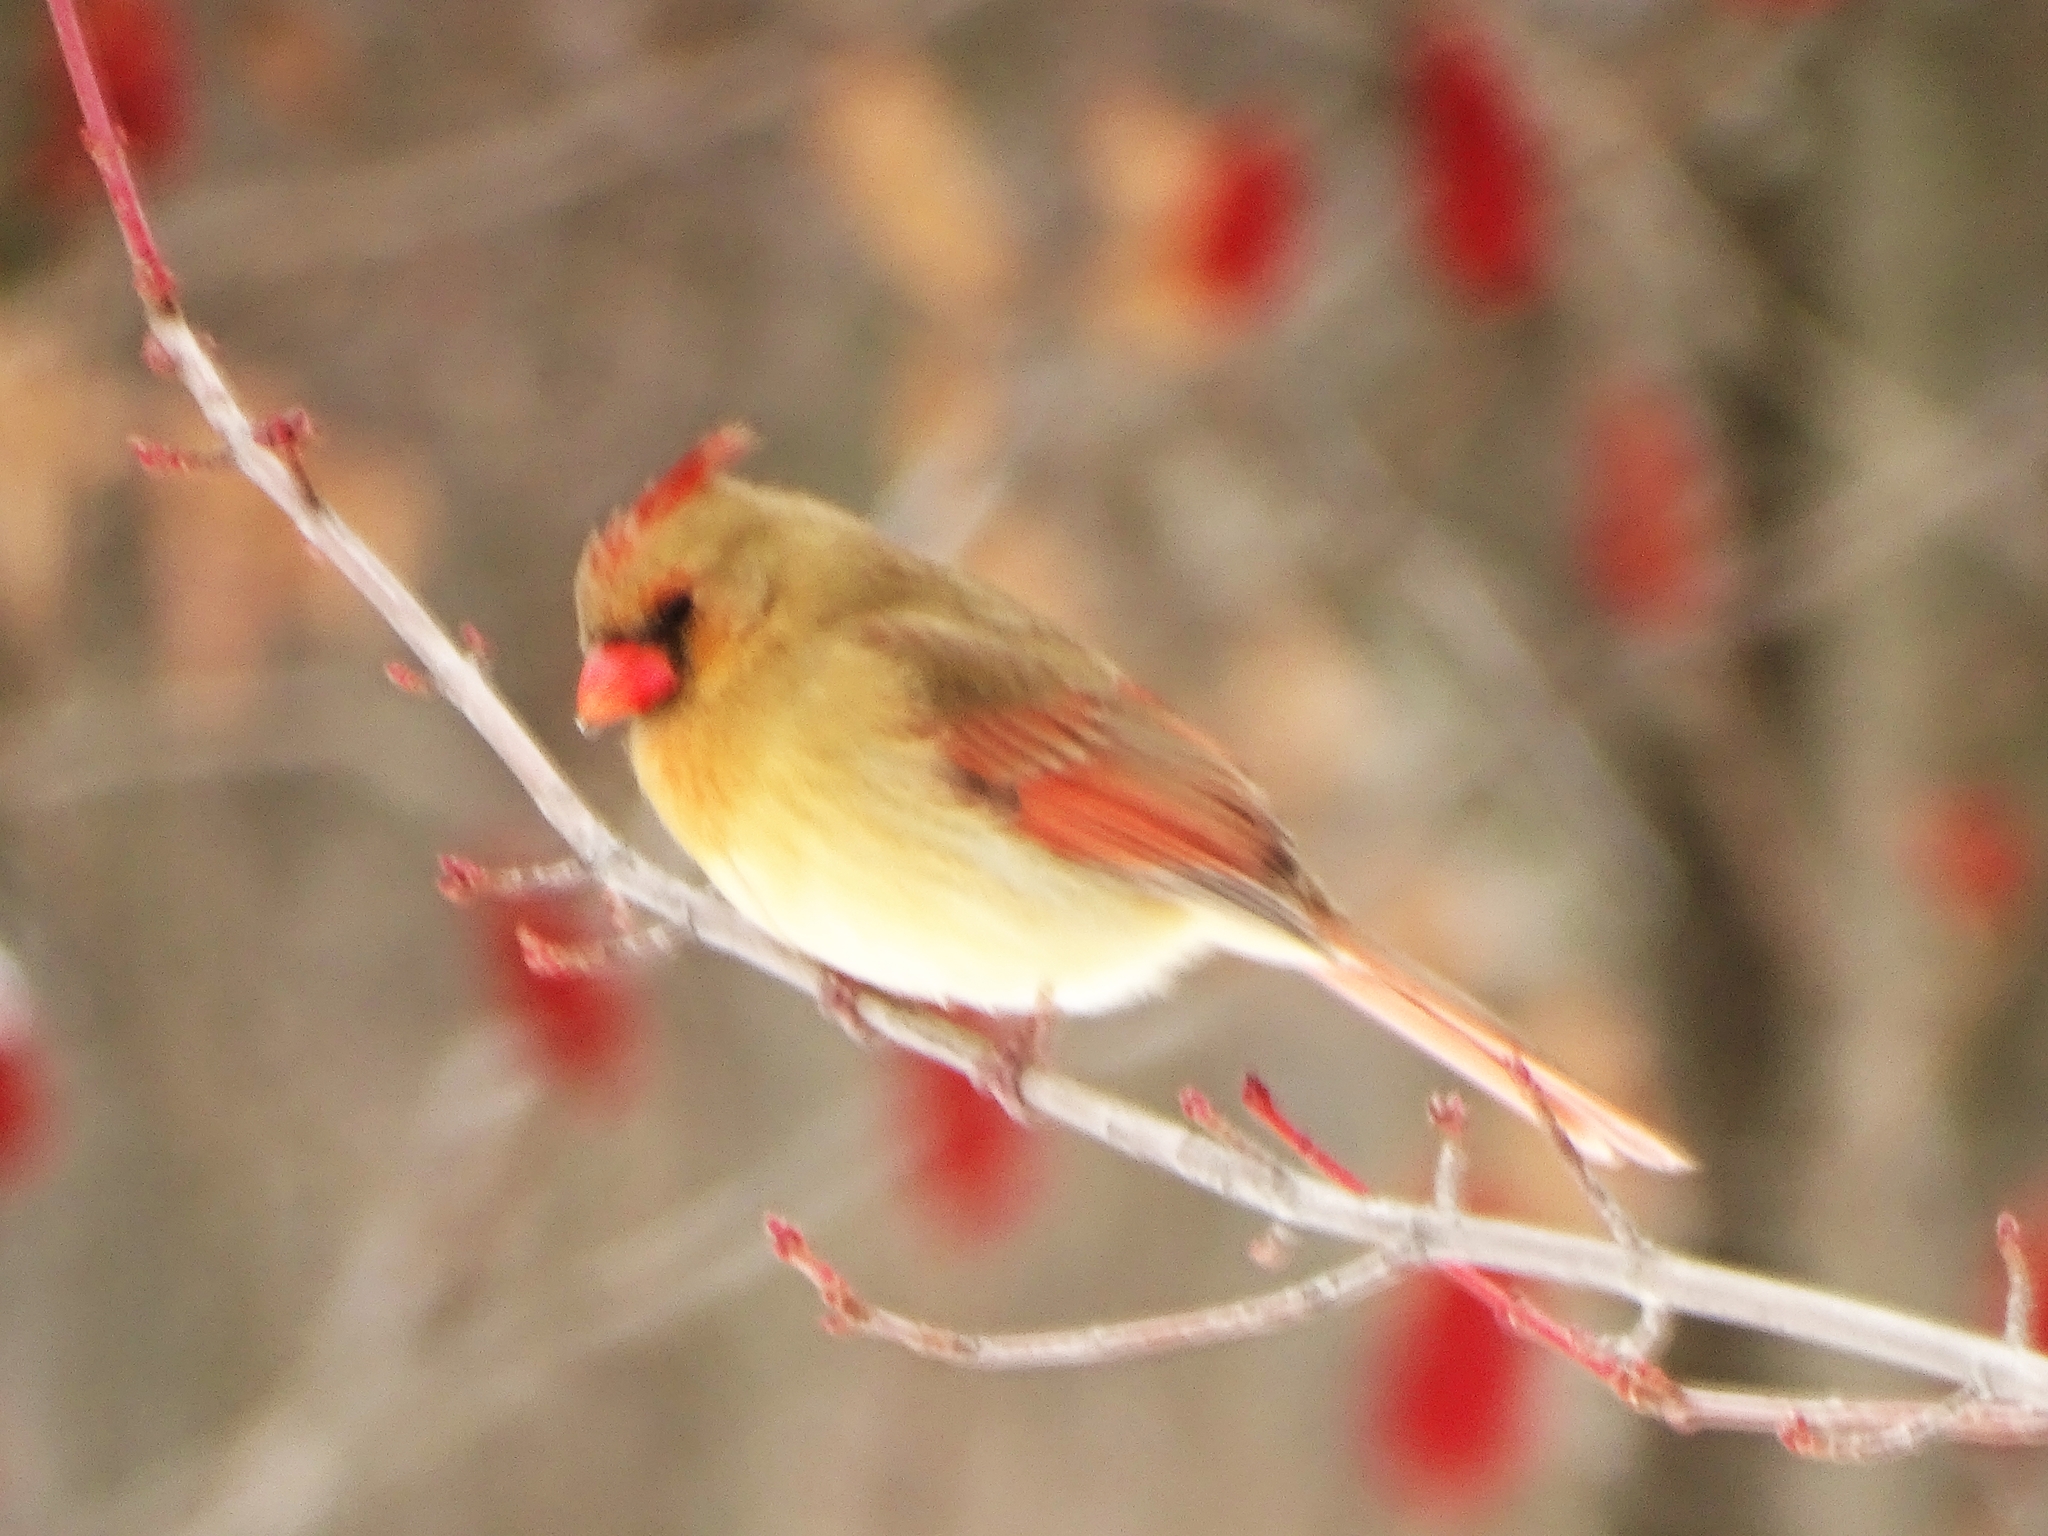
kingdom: Animalia
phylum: Chordata
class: Aves
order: Passeriformes
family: Cardinalidae
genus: Cardinalis
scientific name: Cardinalis cardinalis
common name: Northern cardinal
